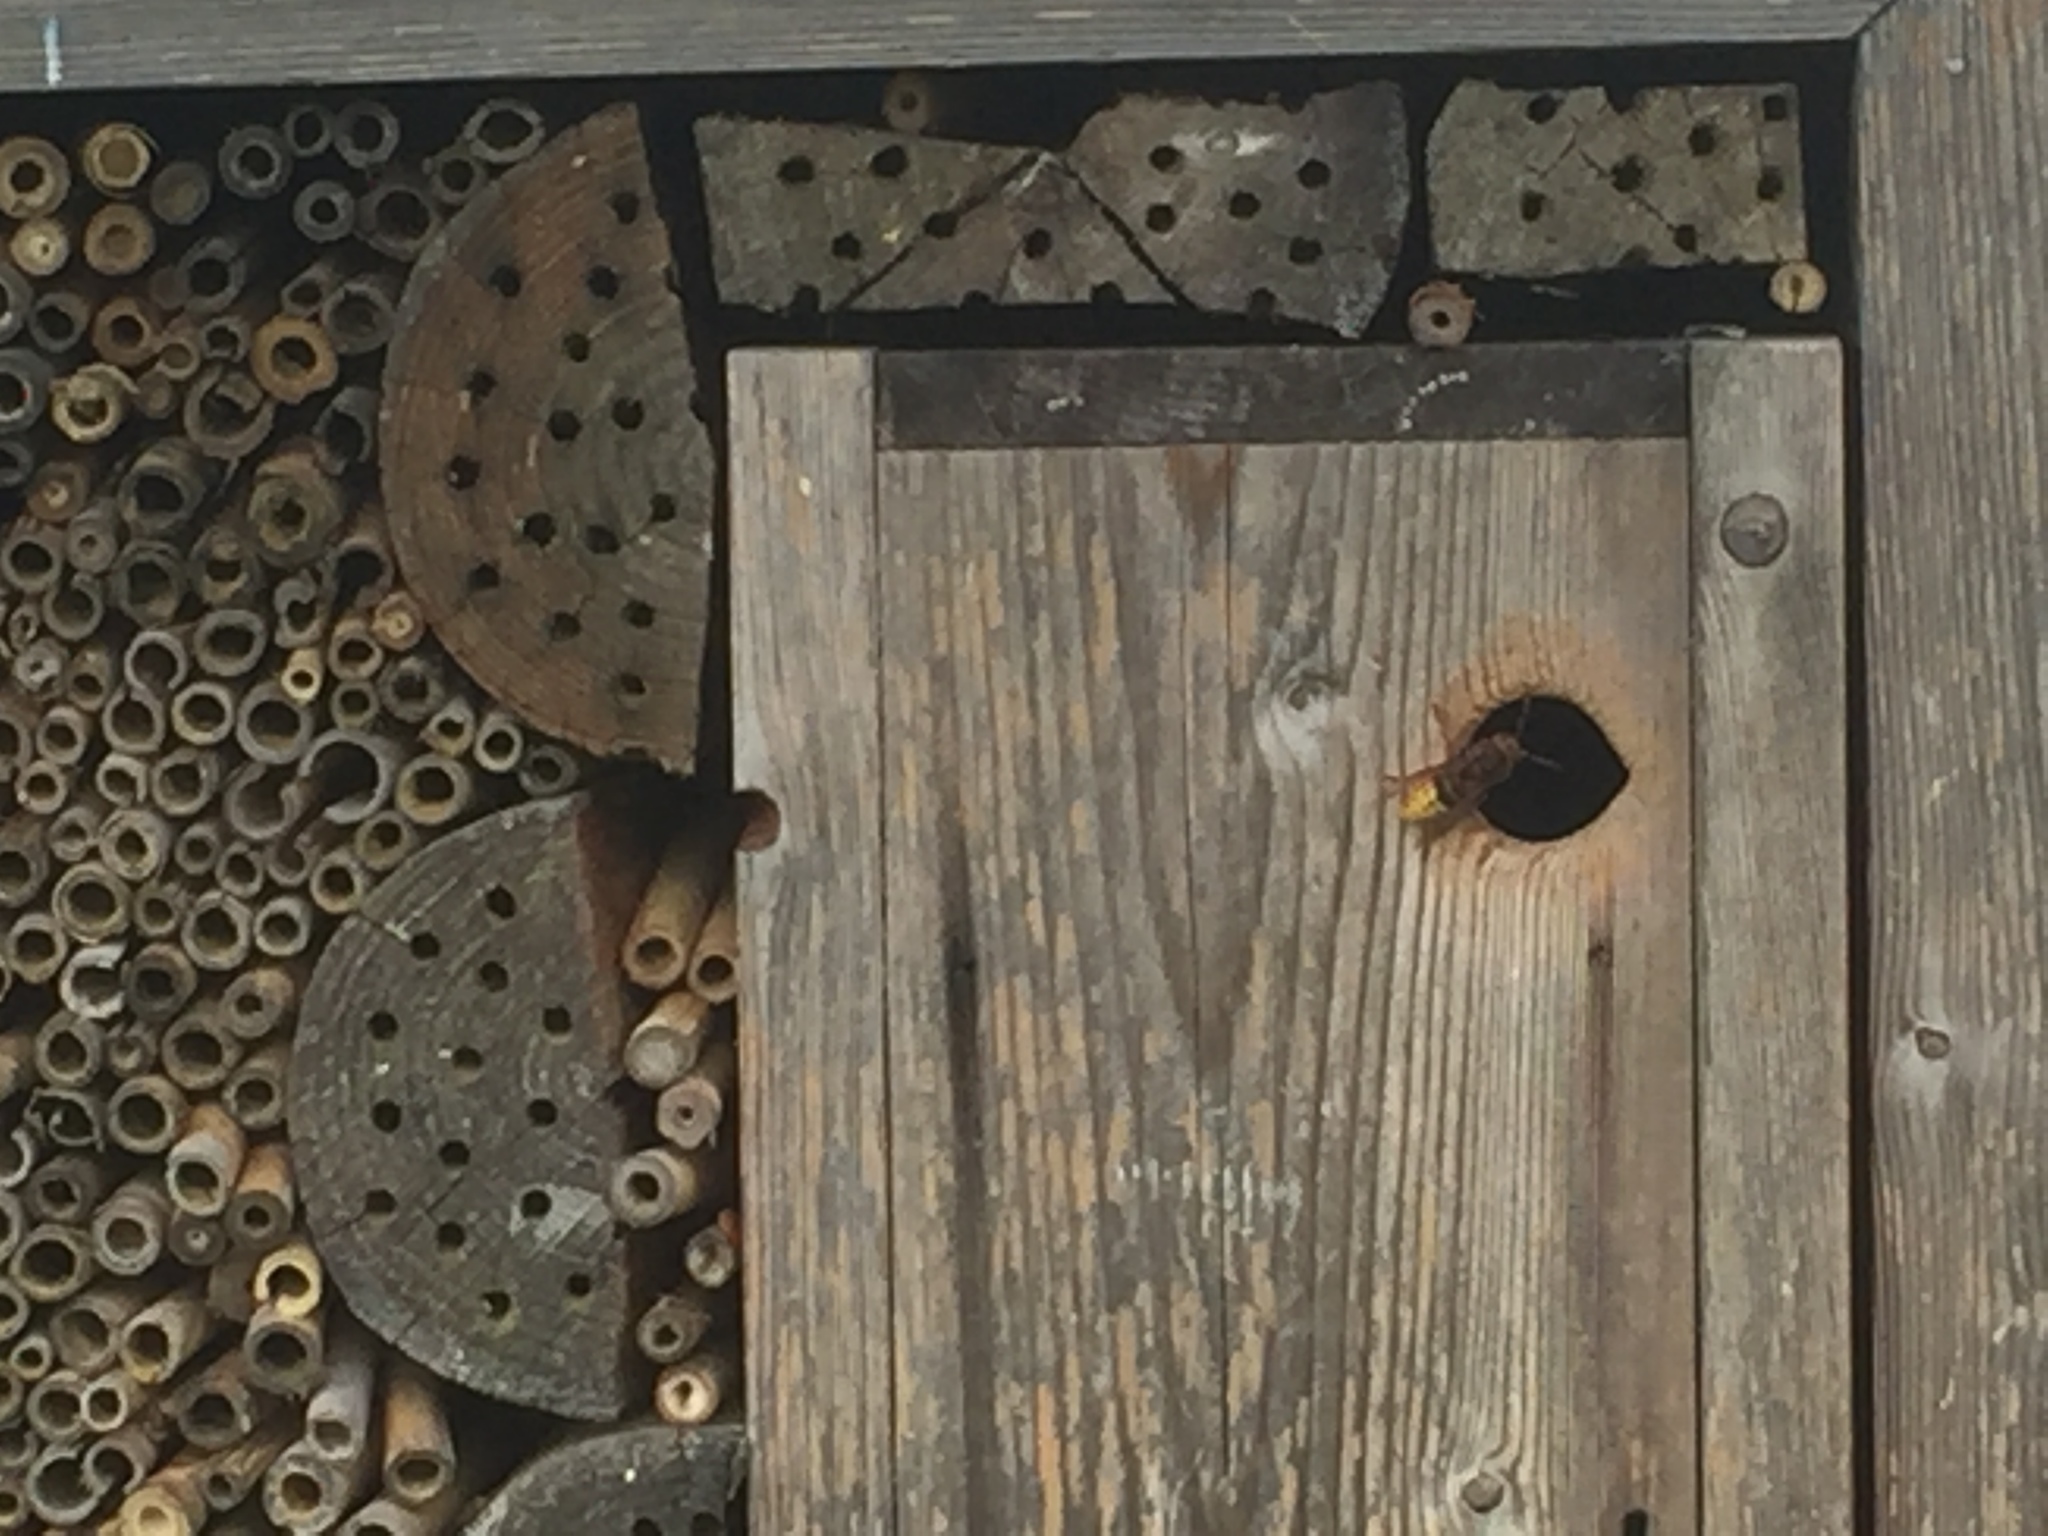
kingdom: Animalia
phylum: Arthropoda
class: Insecta
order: Hymenoptera
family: Vespidae
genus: Vespa
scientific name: Vespa crabro
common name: Hornet
